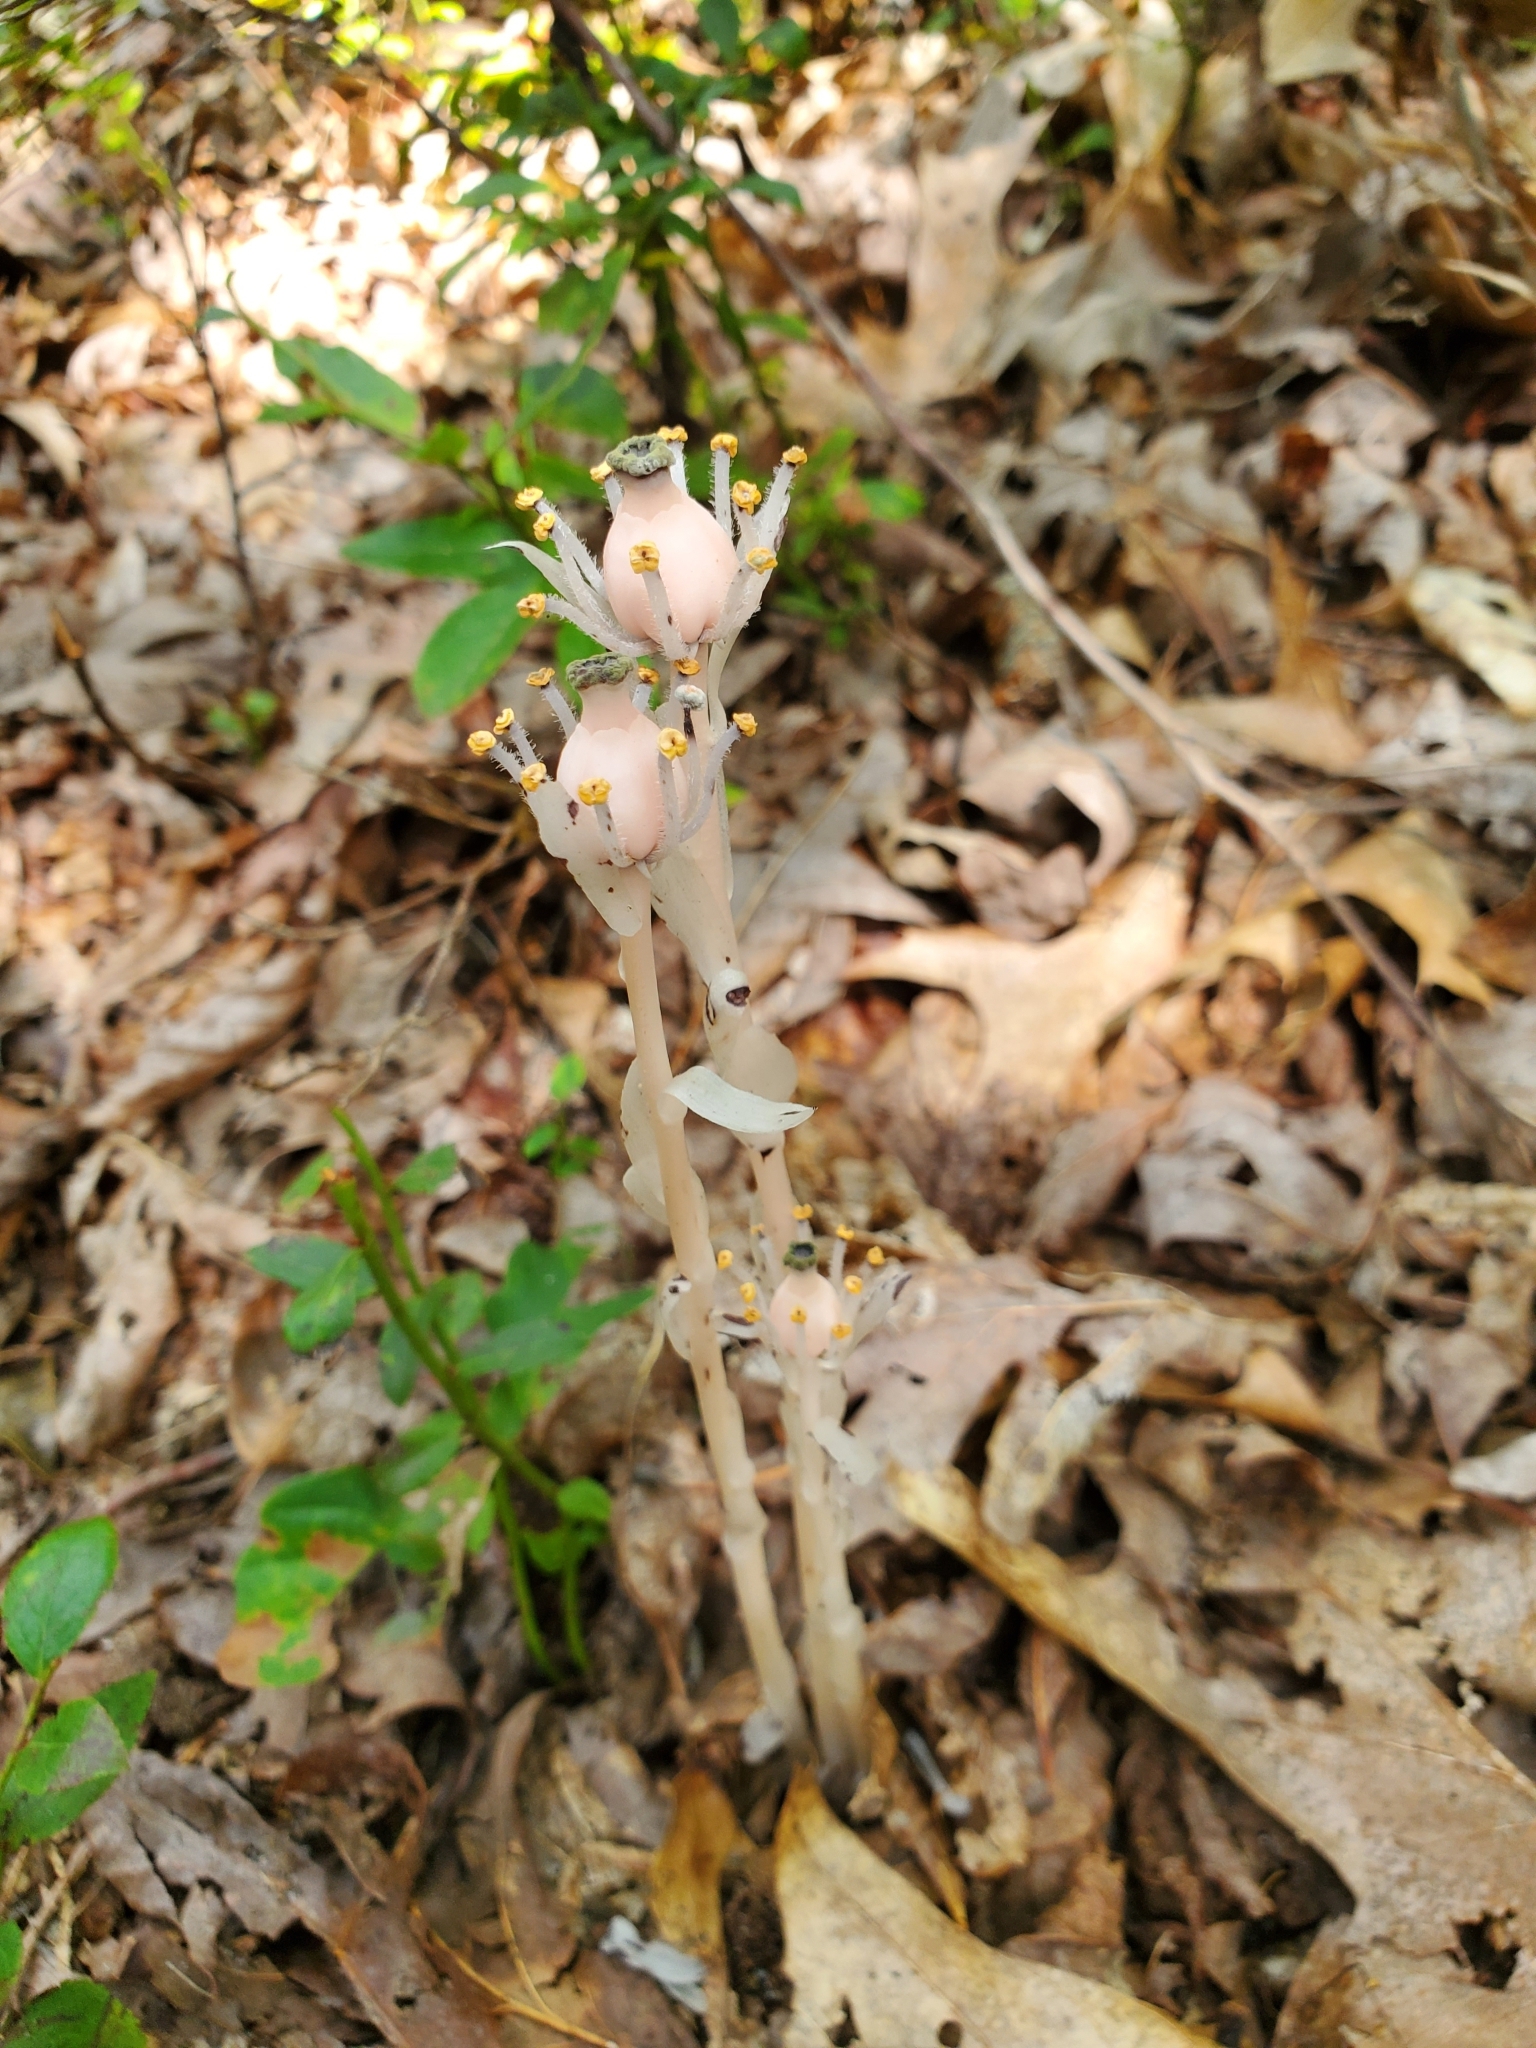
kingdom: Plantae
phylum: Tracheophyta
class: Magnoliopsida
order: Ericales
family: Ericaceae
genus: Monotropa
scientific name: Monotropa uniflora
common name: Convulsion root
